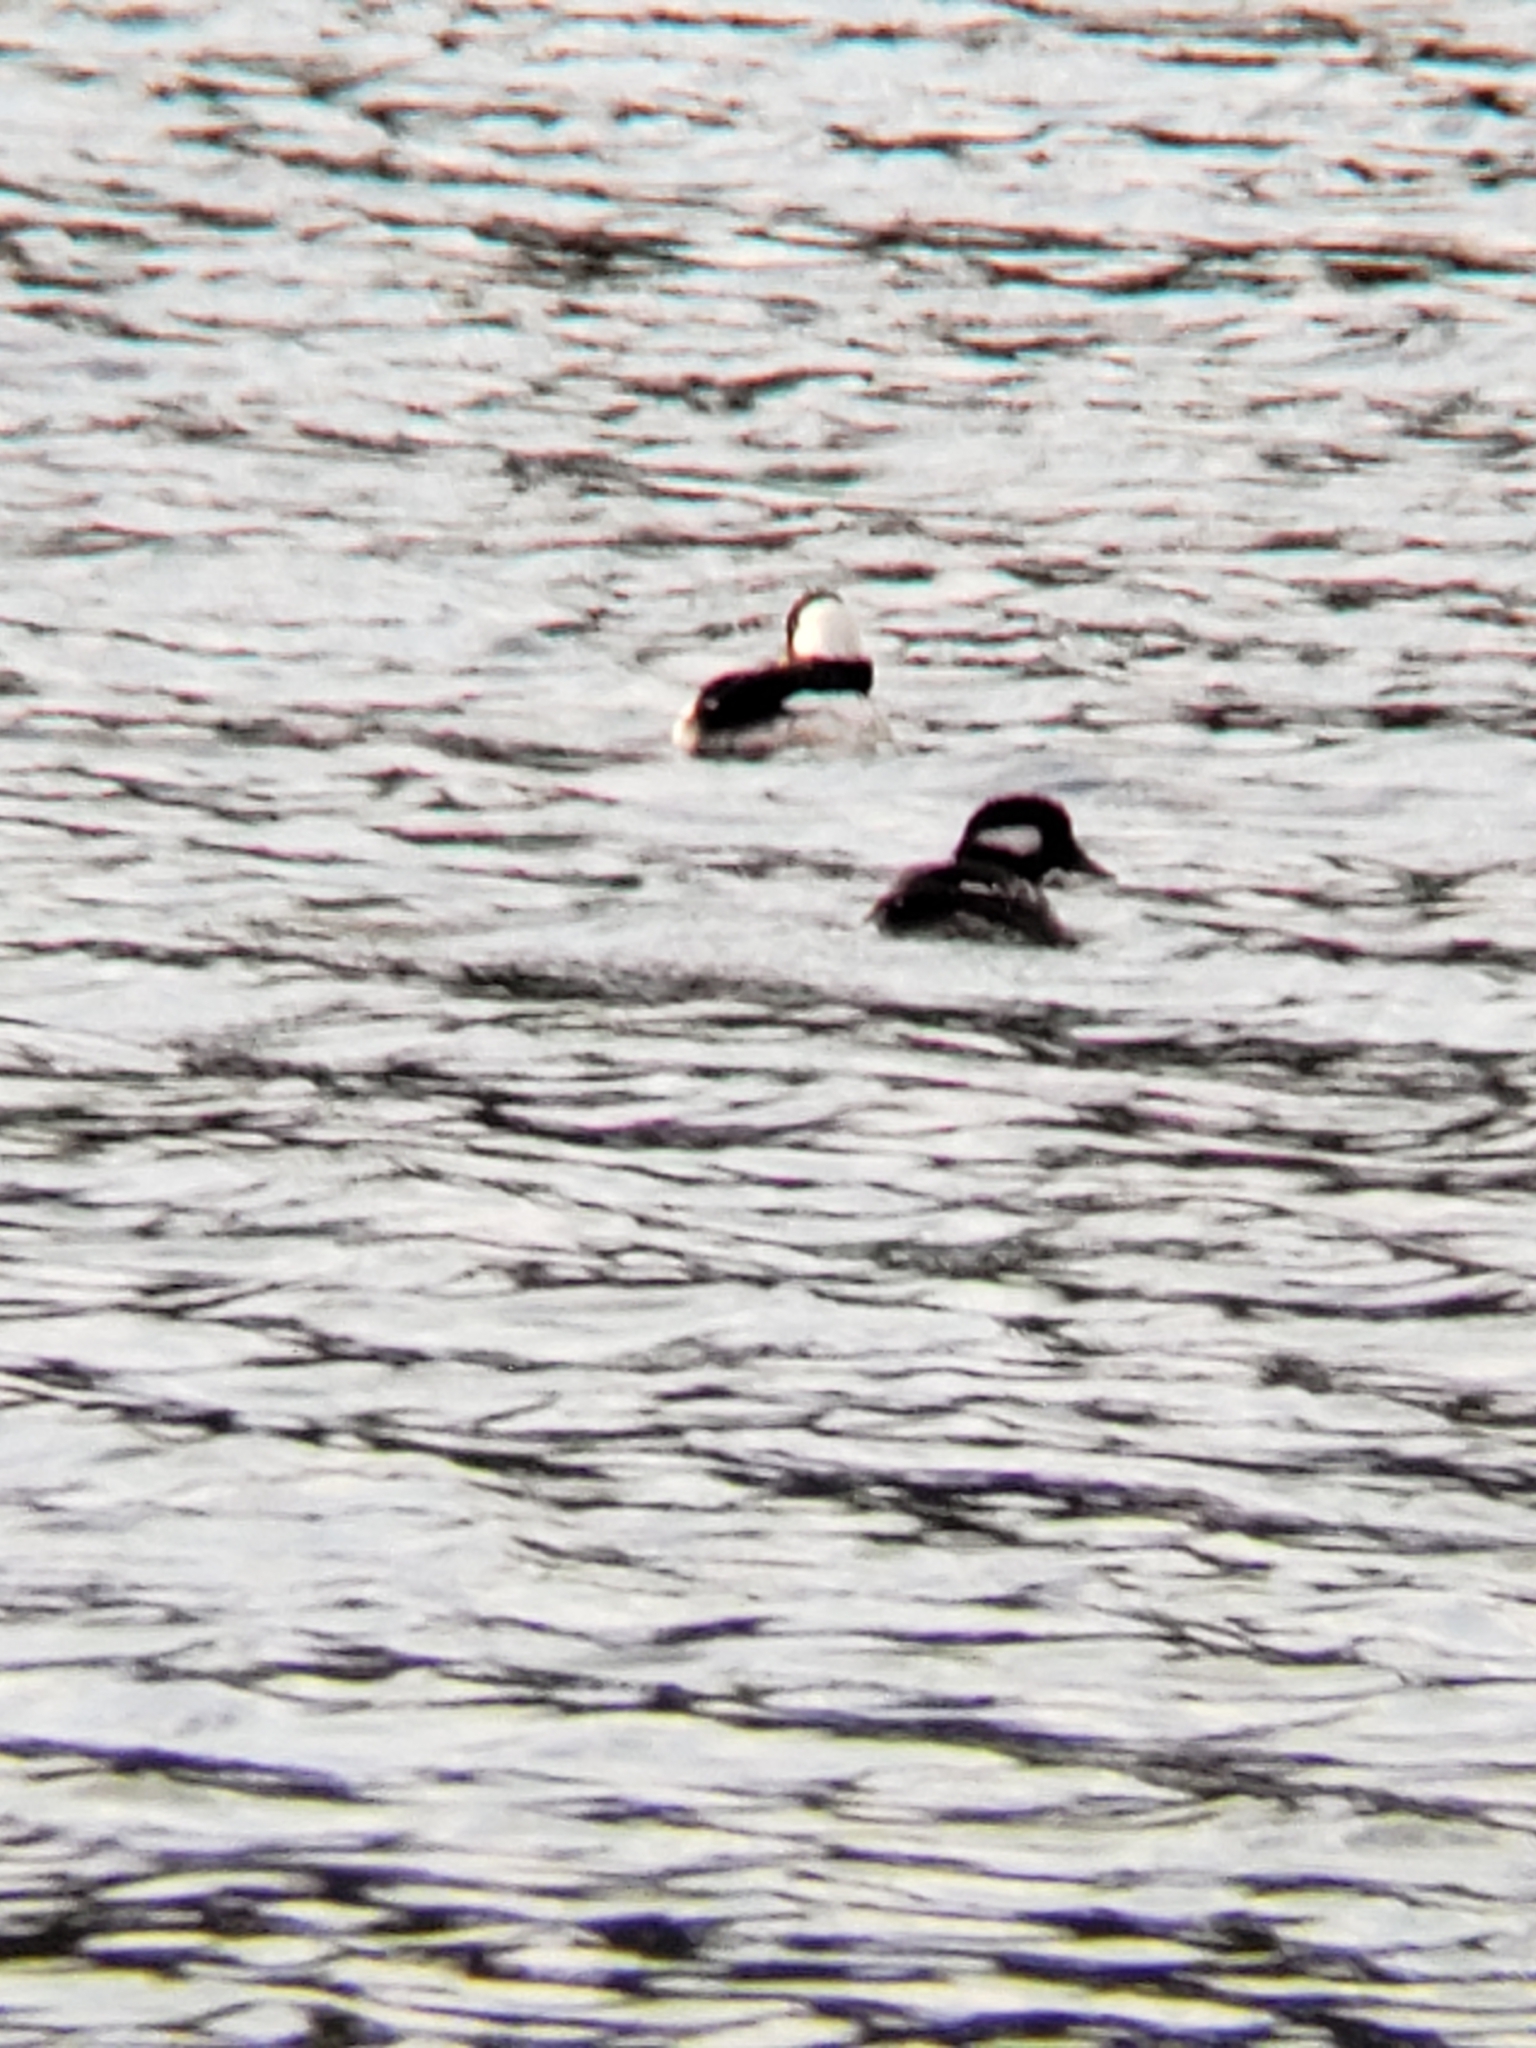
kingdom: Animalia
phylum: Chordata
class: Aves
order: Anseriformes
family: Anatidae
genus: Bucephala
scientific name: Bucephala albeola
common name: Bufflehead
